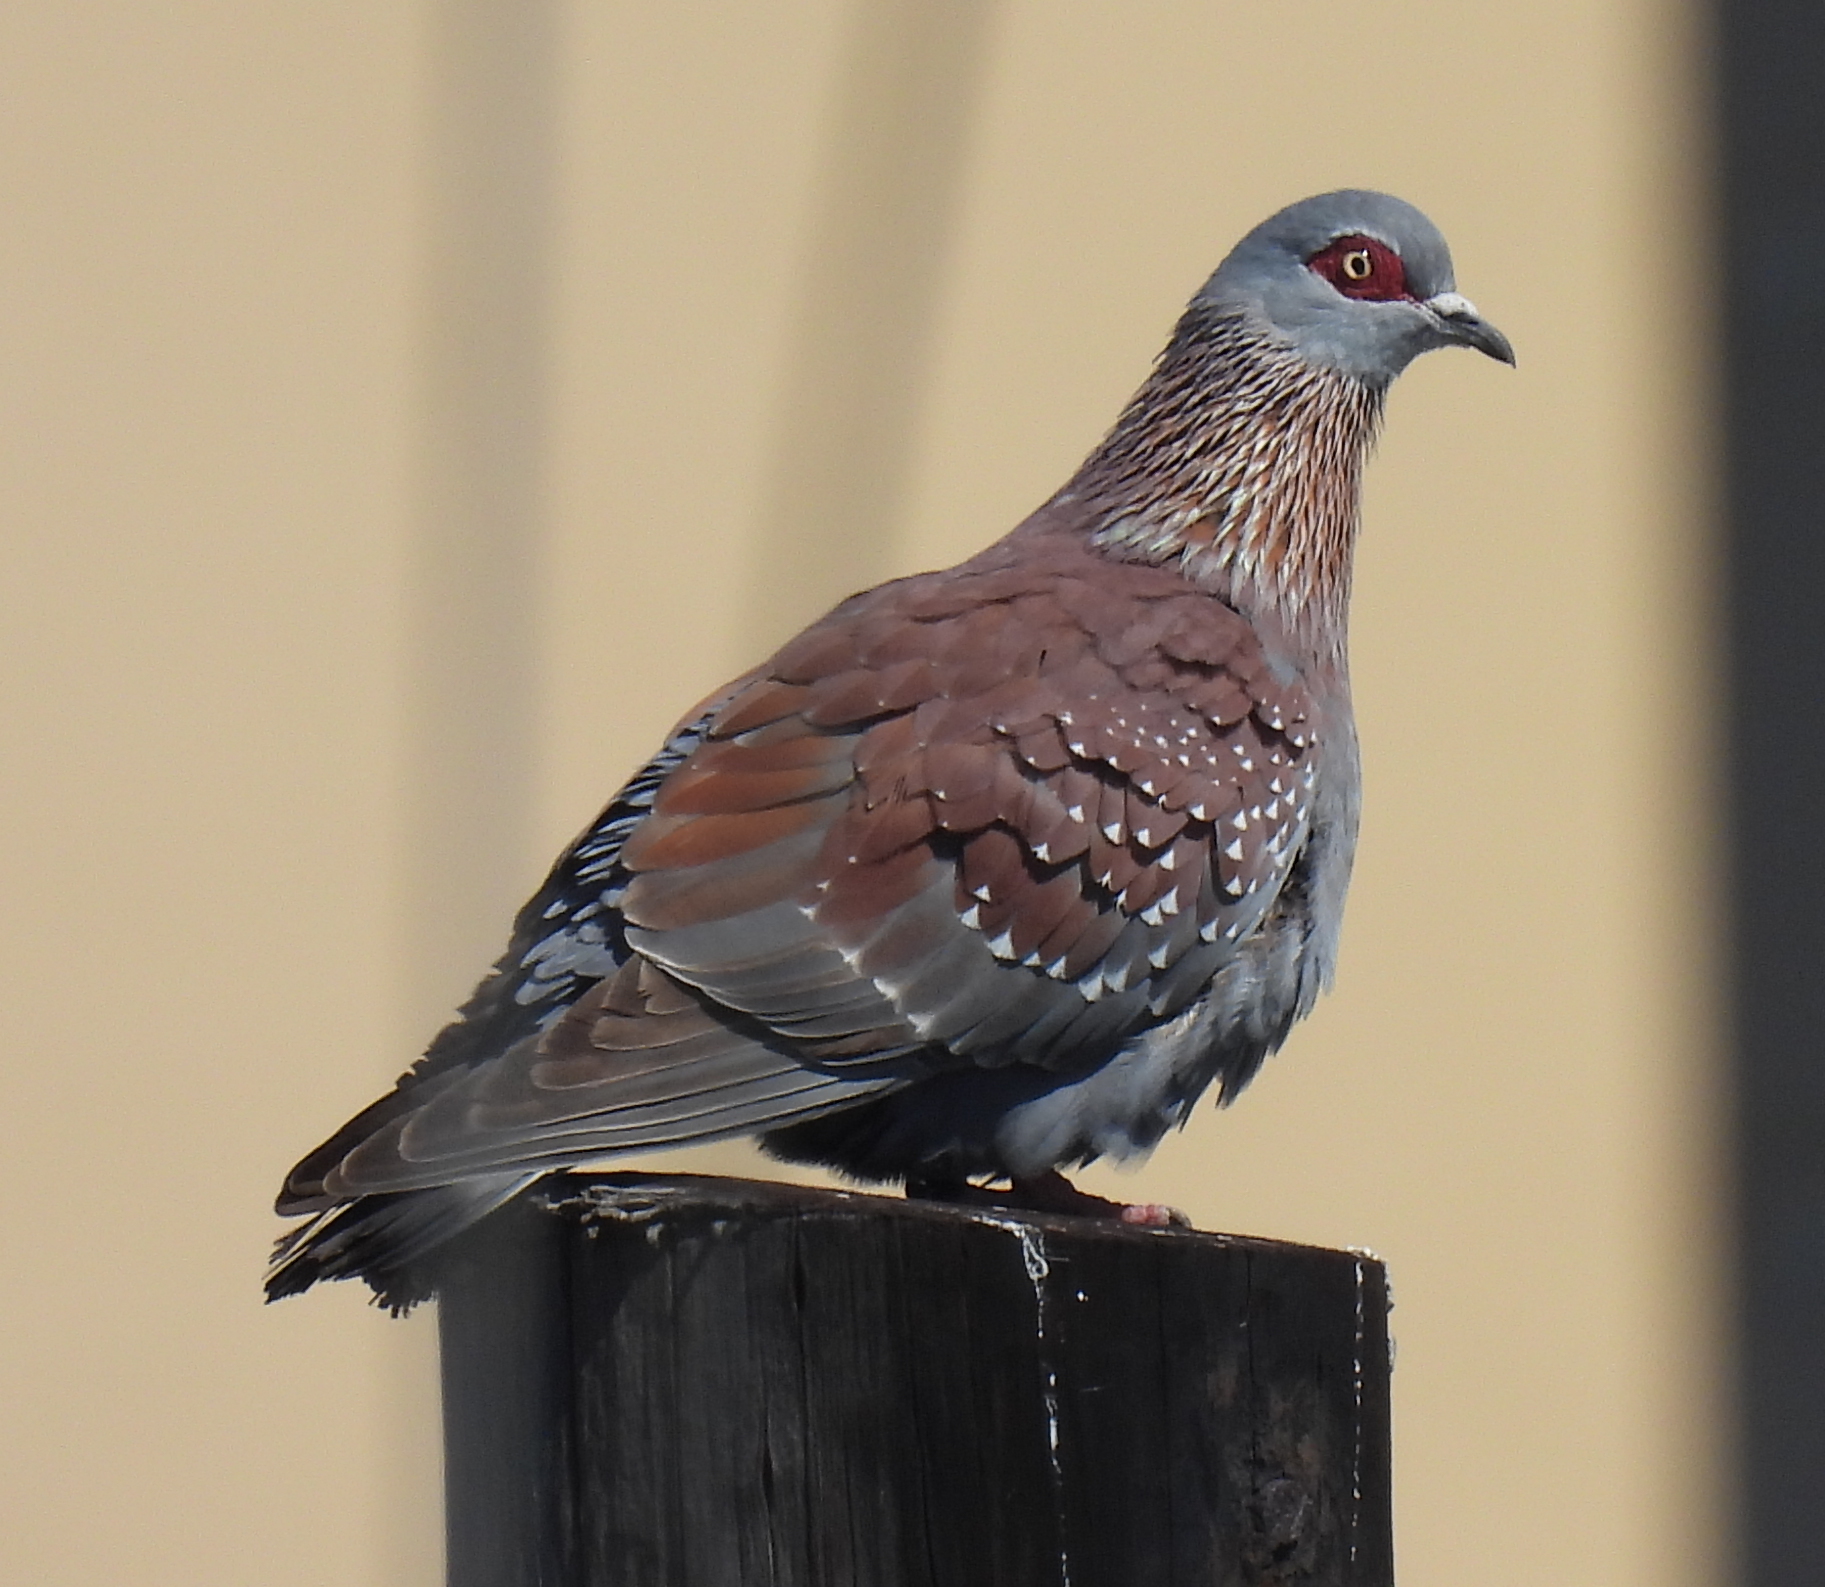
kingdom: Animalia
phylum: Chordata
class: Aves
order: Columbiformes
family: Columbidae
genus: Columba
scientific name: Columba guinea
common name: Speckled pigeon
